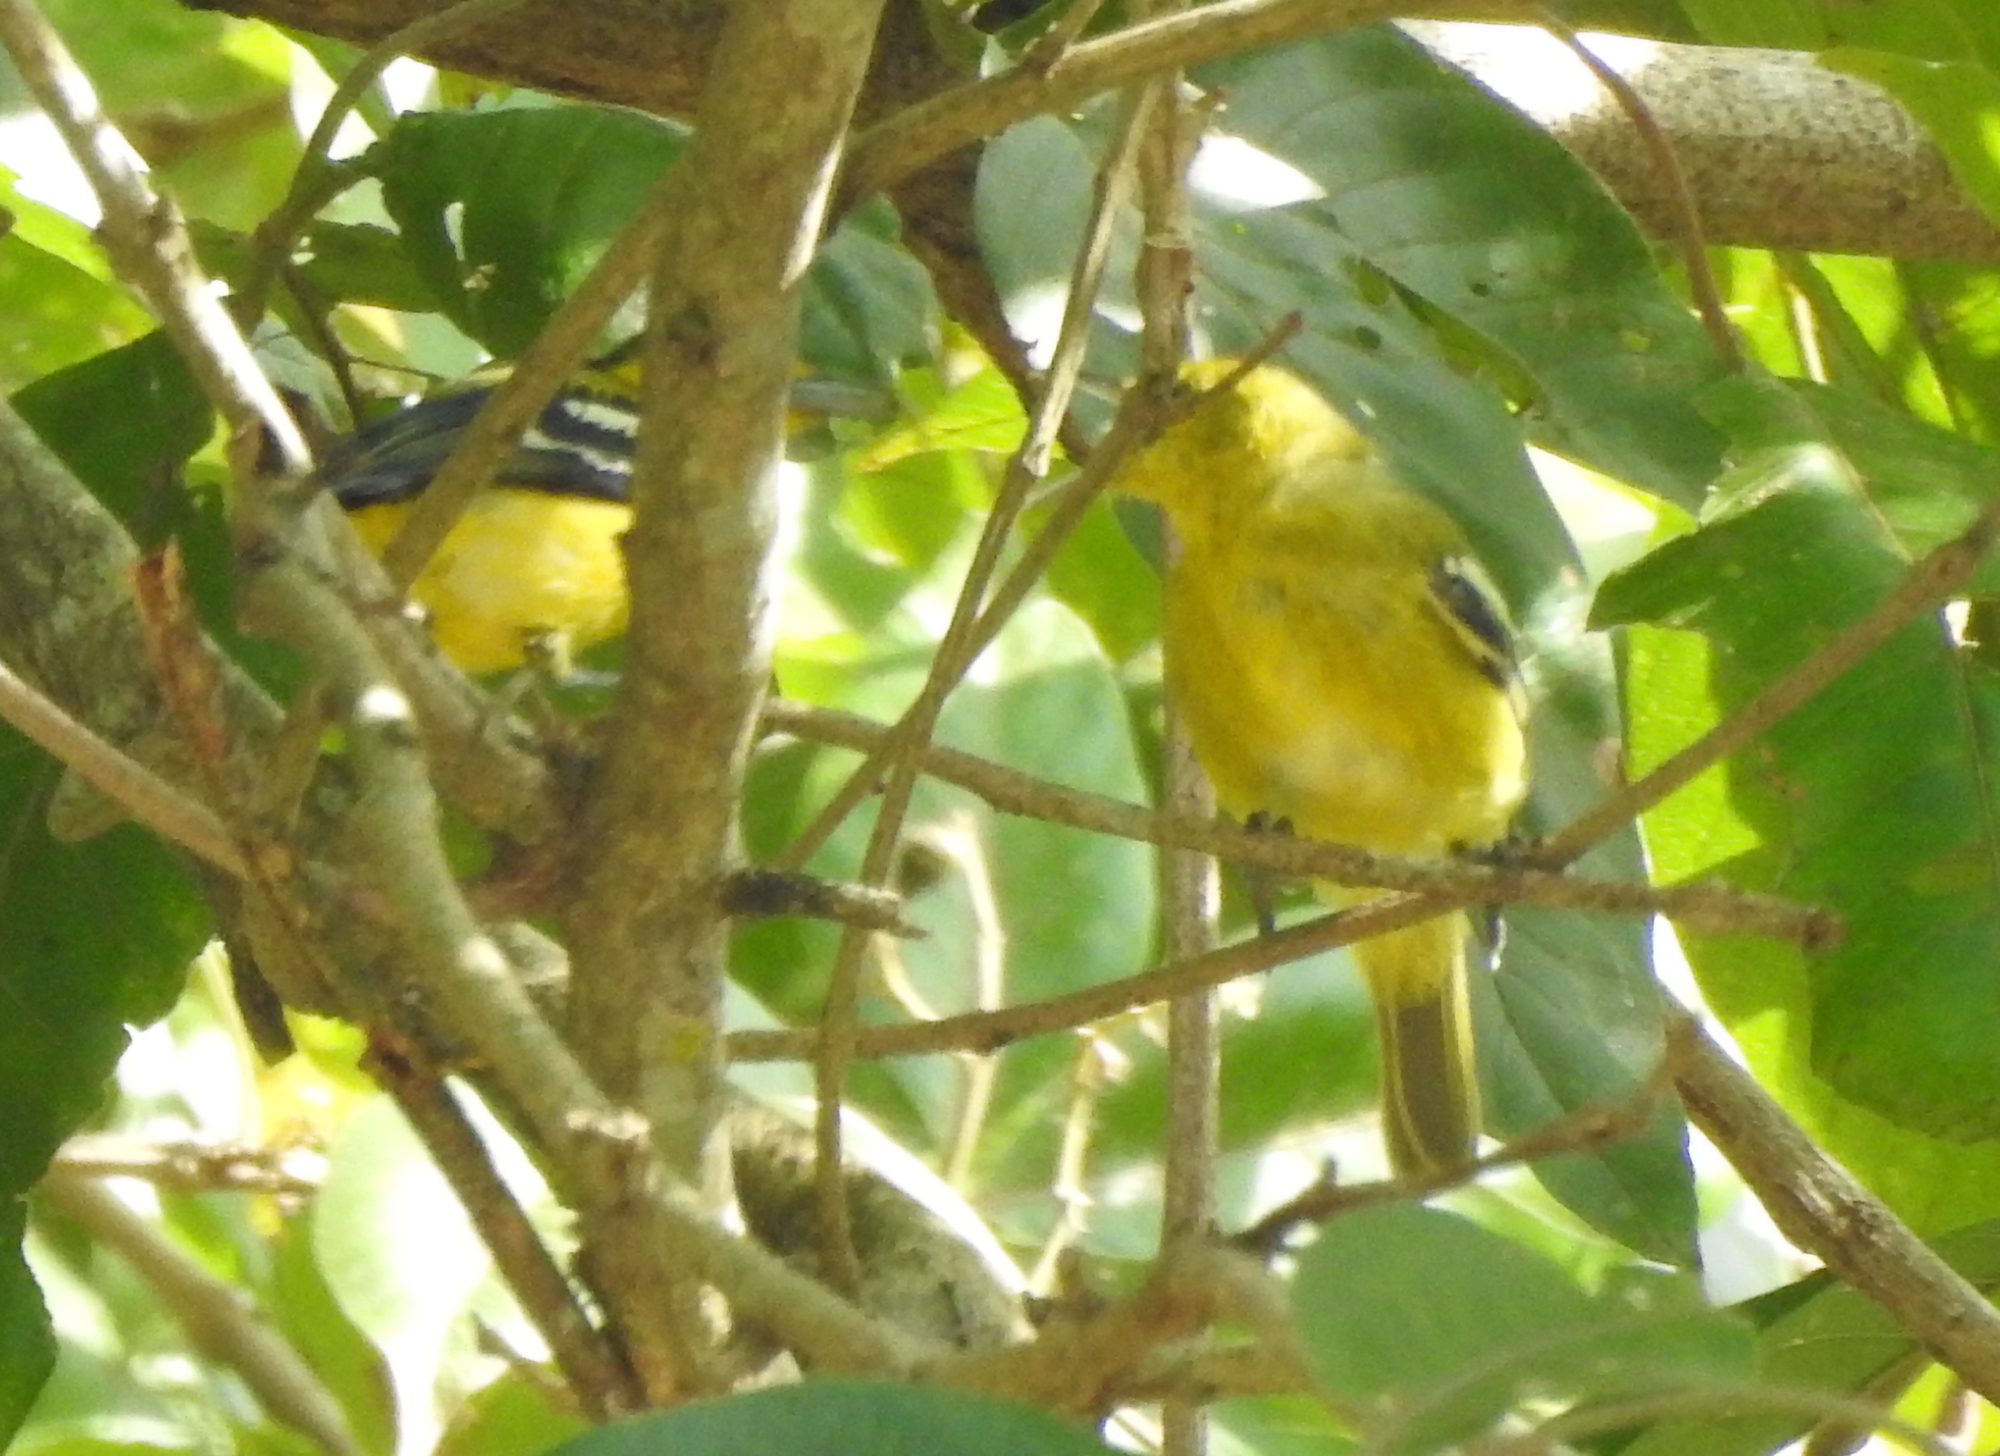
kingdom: Animalia
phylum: Chordata
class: Aves
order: Passeriformes
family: Aegithinidae
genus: Aegithina
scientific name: Aegithina tiphia
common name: Common iora
